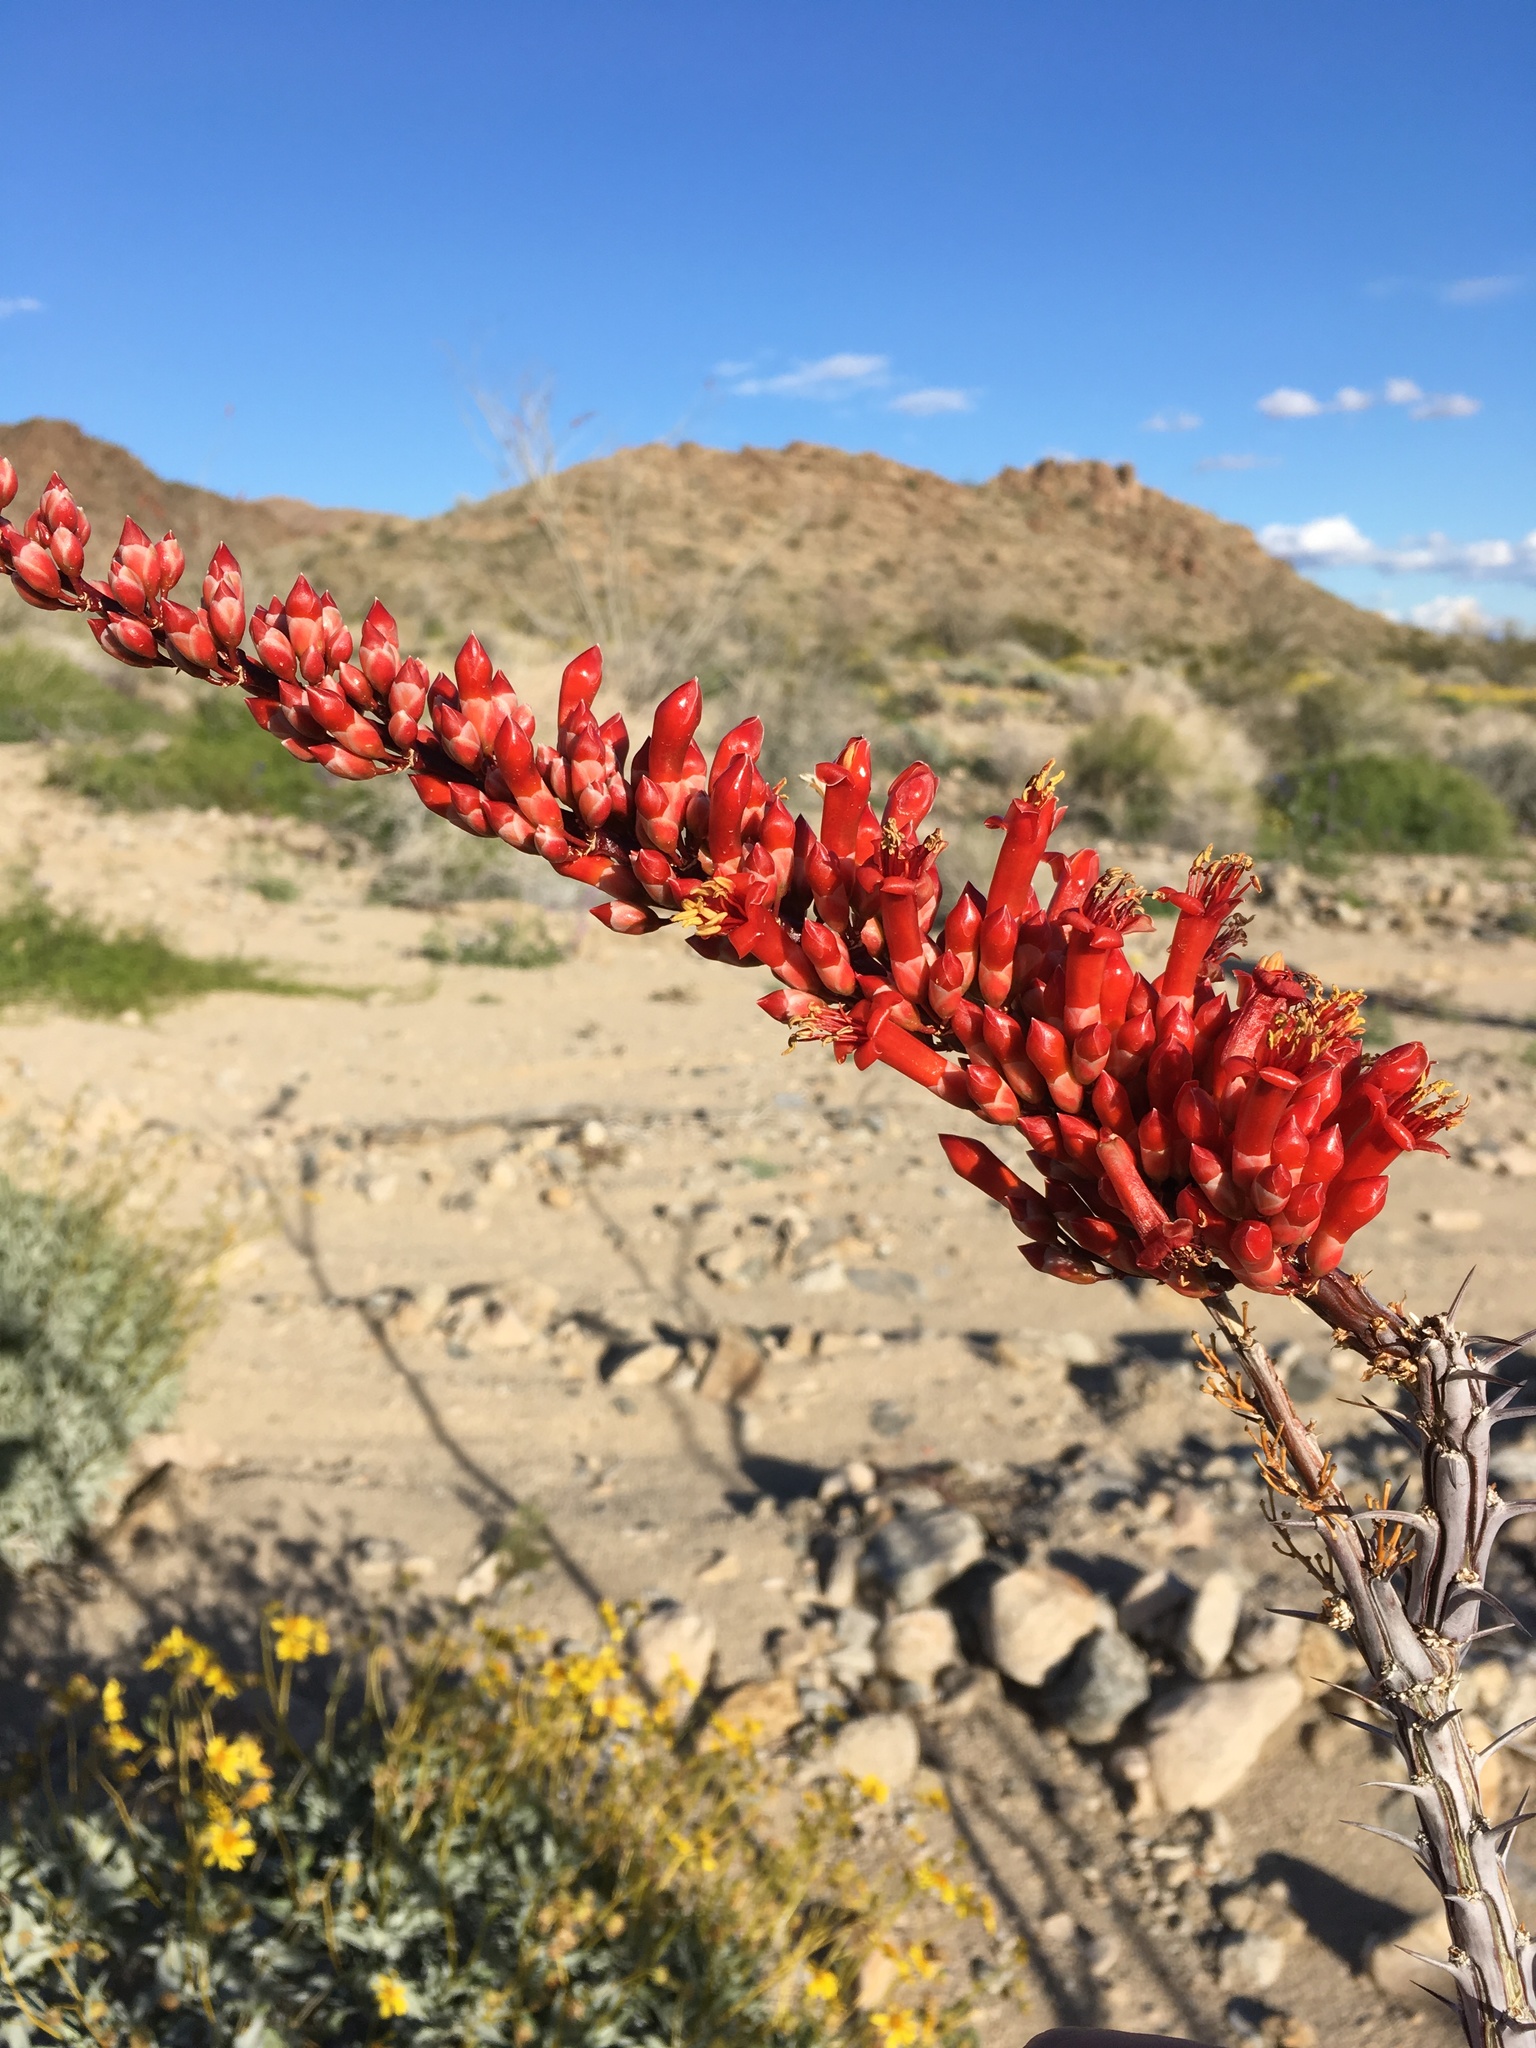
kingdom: Plantae
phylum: Tracheophyta
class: Magnoliopsida
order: Ericales
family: Fouquieriaceae
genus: Fouquieria
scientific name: Fouquieria splendens
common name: Vine-cactus
